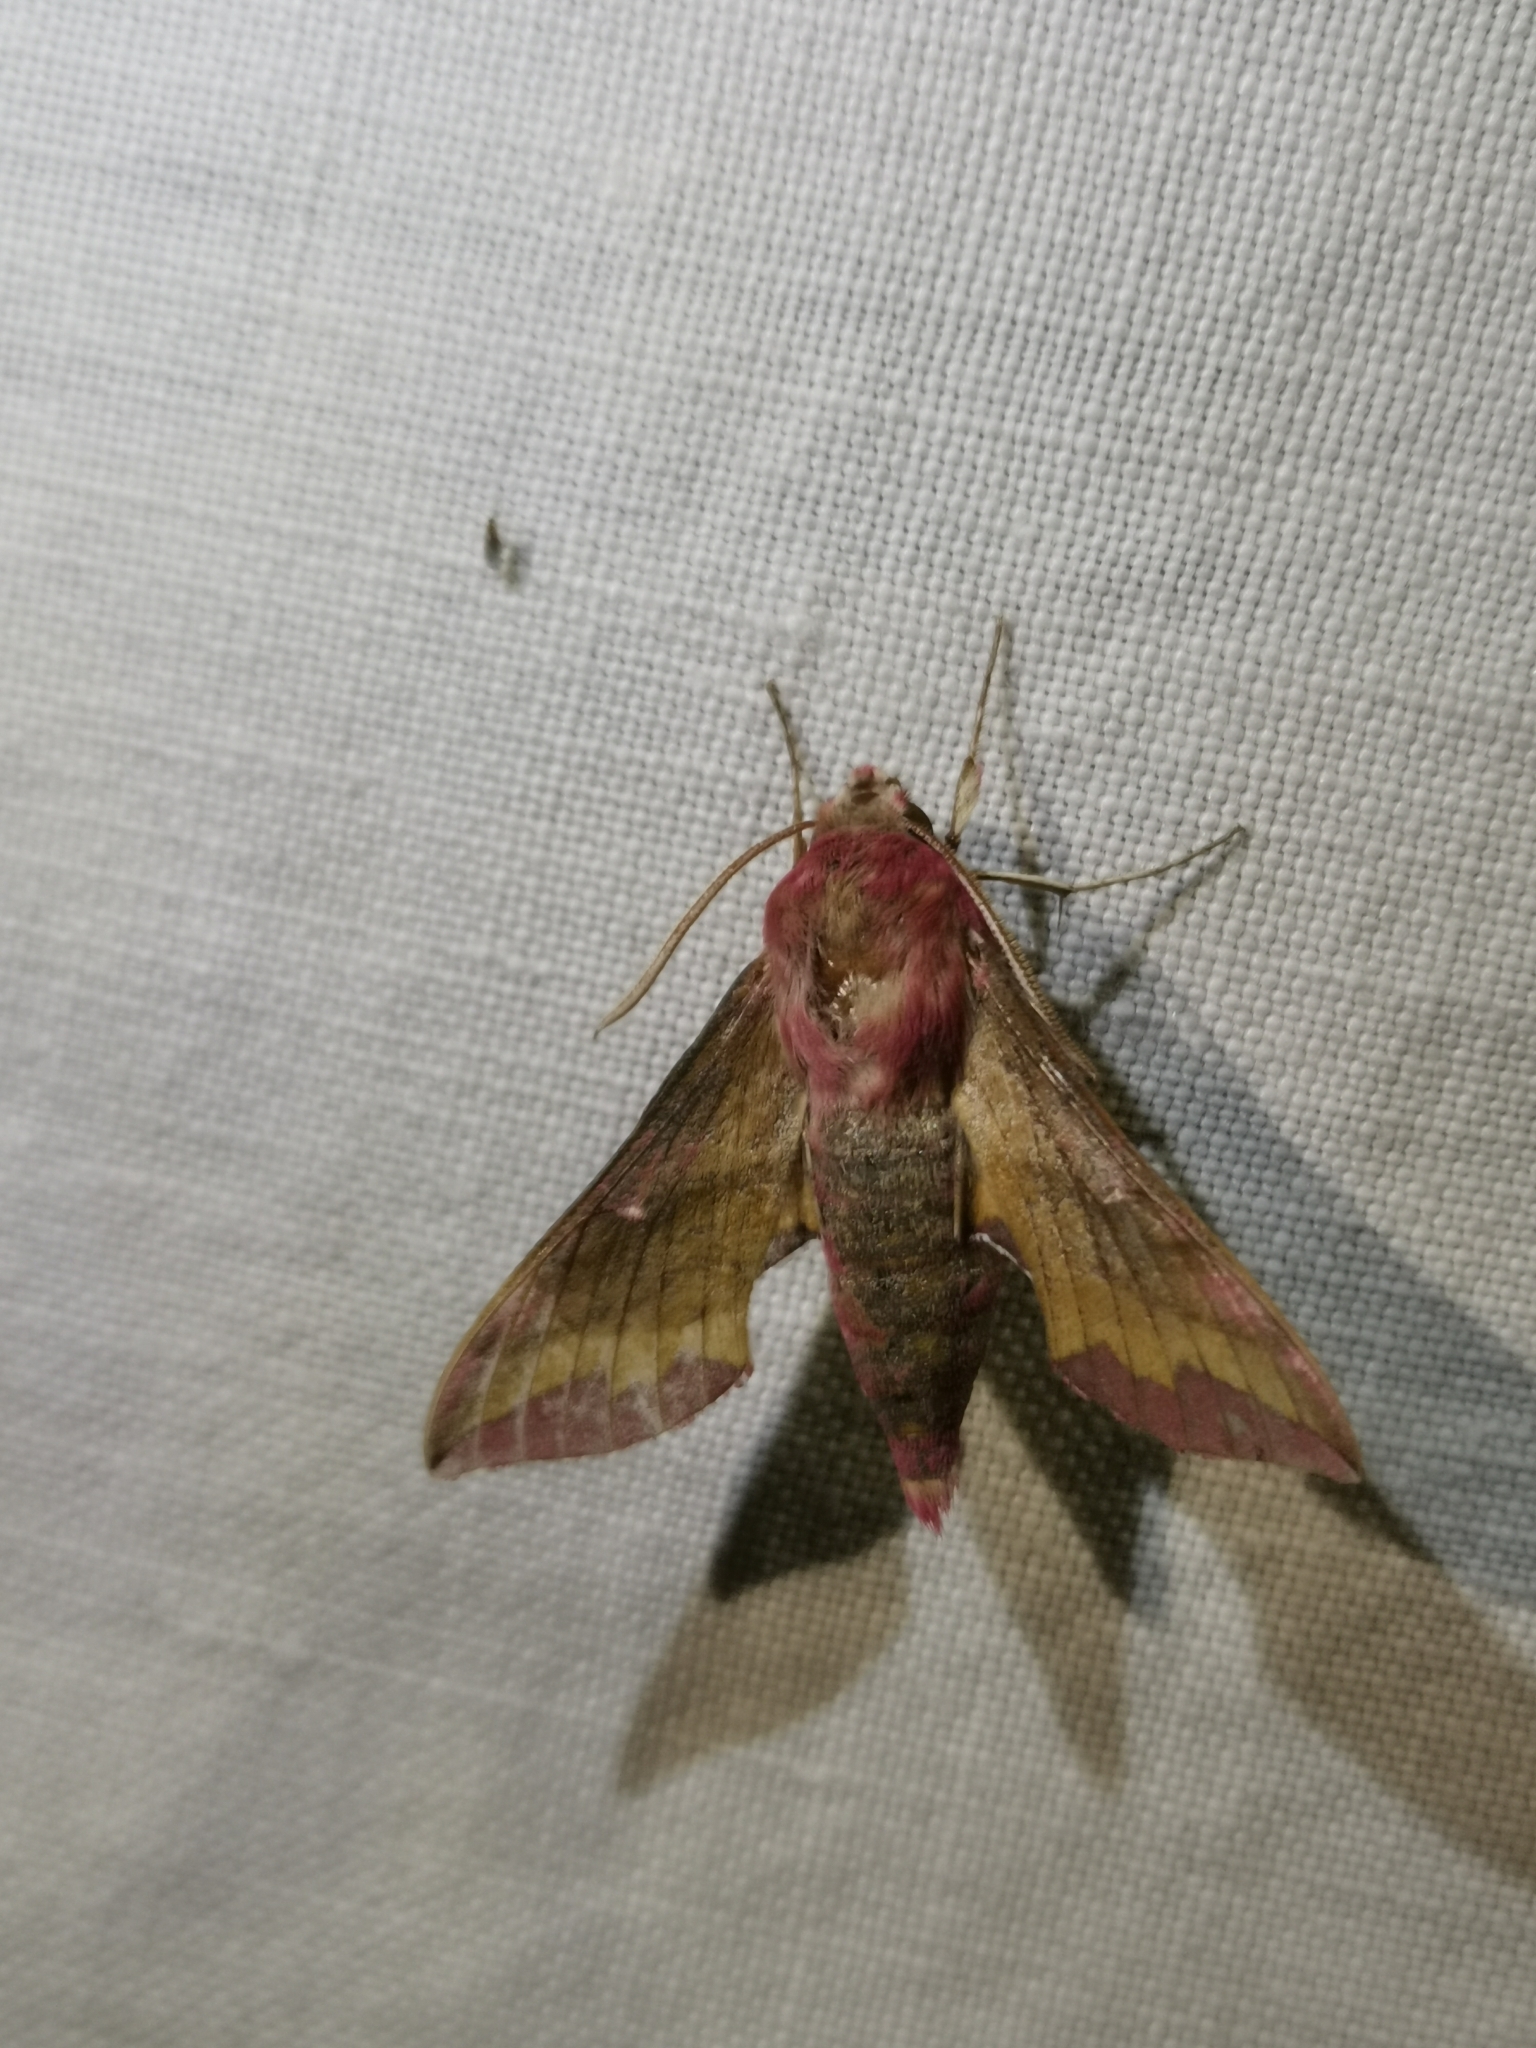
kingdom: Animalia
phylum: Arthropoda
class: Insecta
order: Lepidoptera
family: Sphingidae
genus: Deilephila
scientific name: Deilephila porcellus
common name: Small elephant hawk-moth
